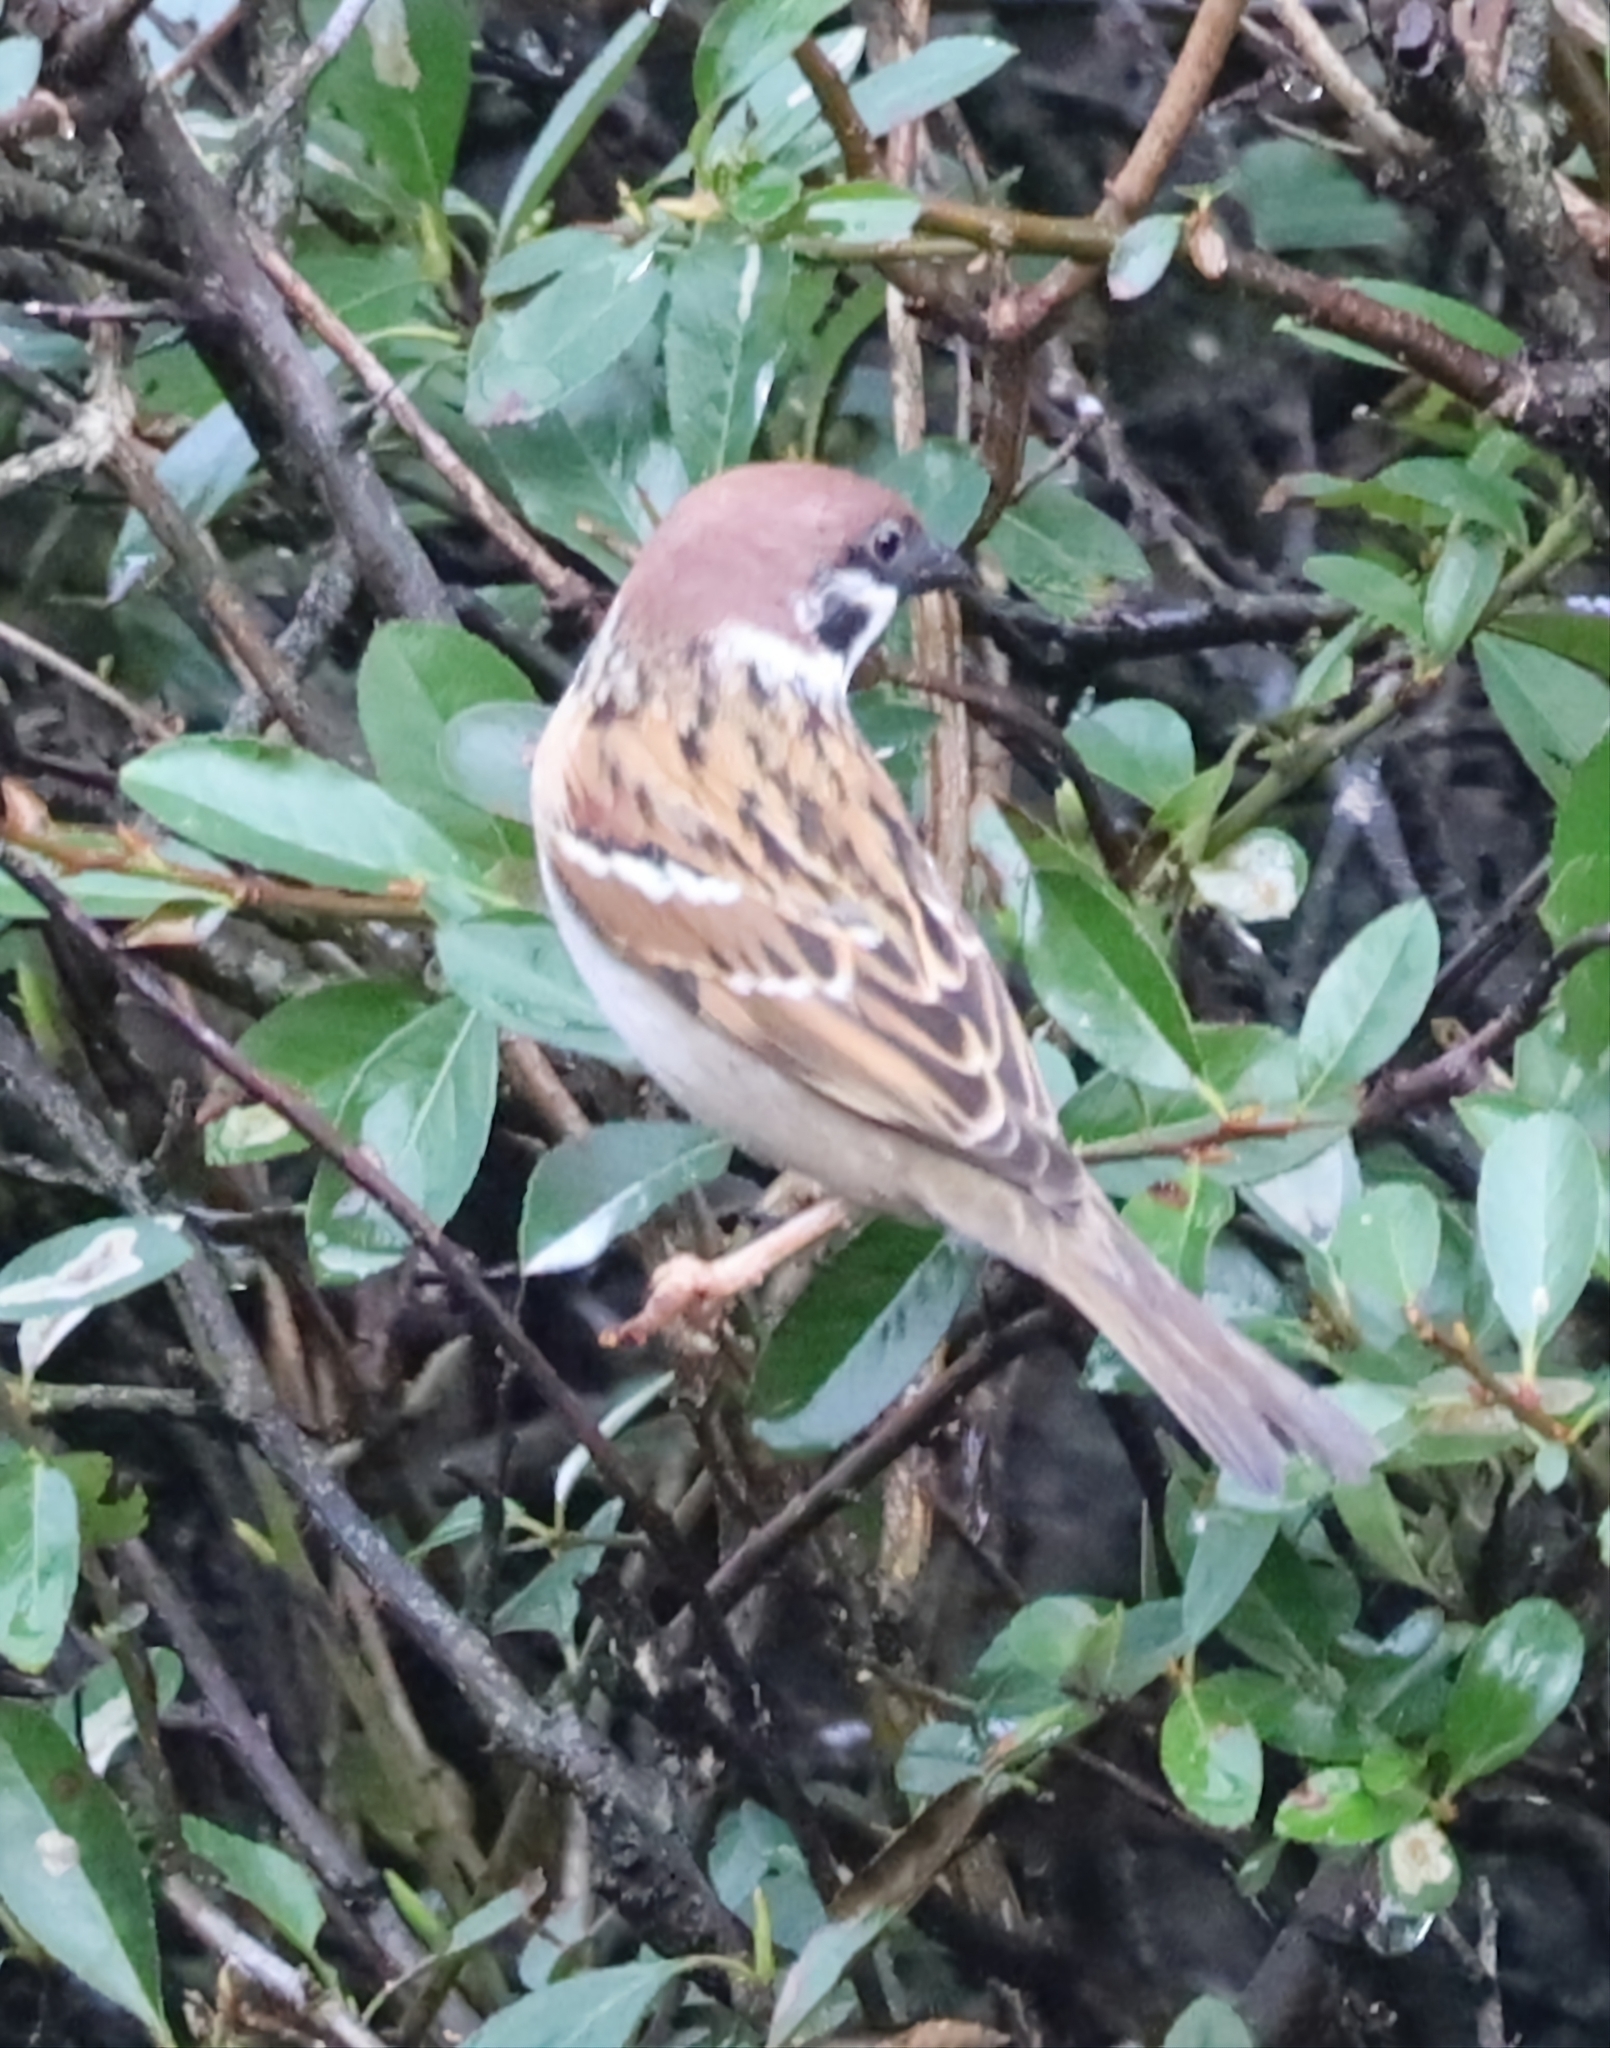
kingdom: Animalia
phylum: Chordata
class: Aves
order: Passeriformes
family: Passeridae
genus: Passer
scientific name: Passer montanus
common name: Eurasian tree sparrow
